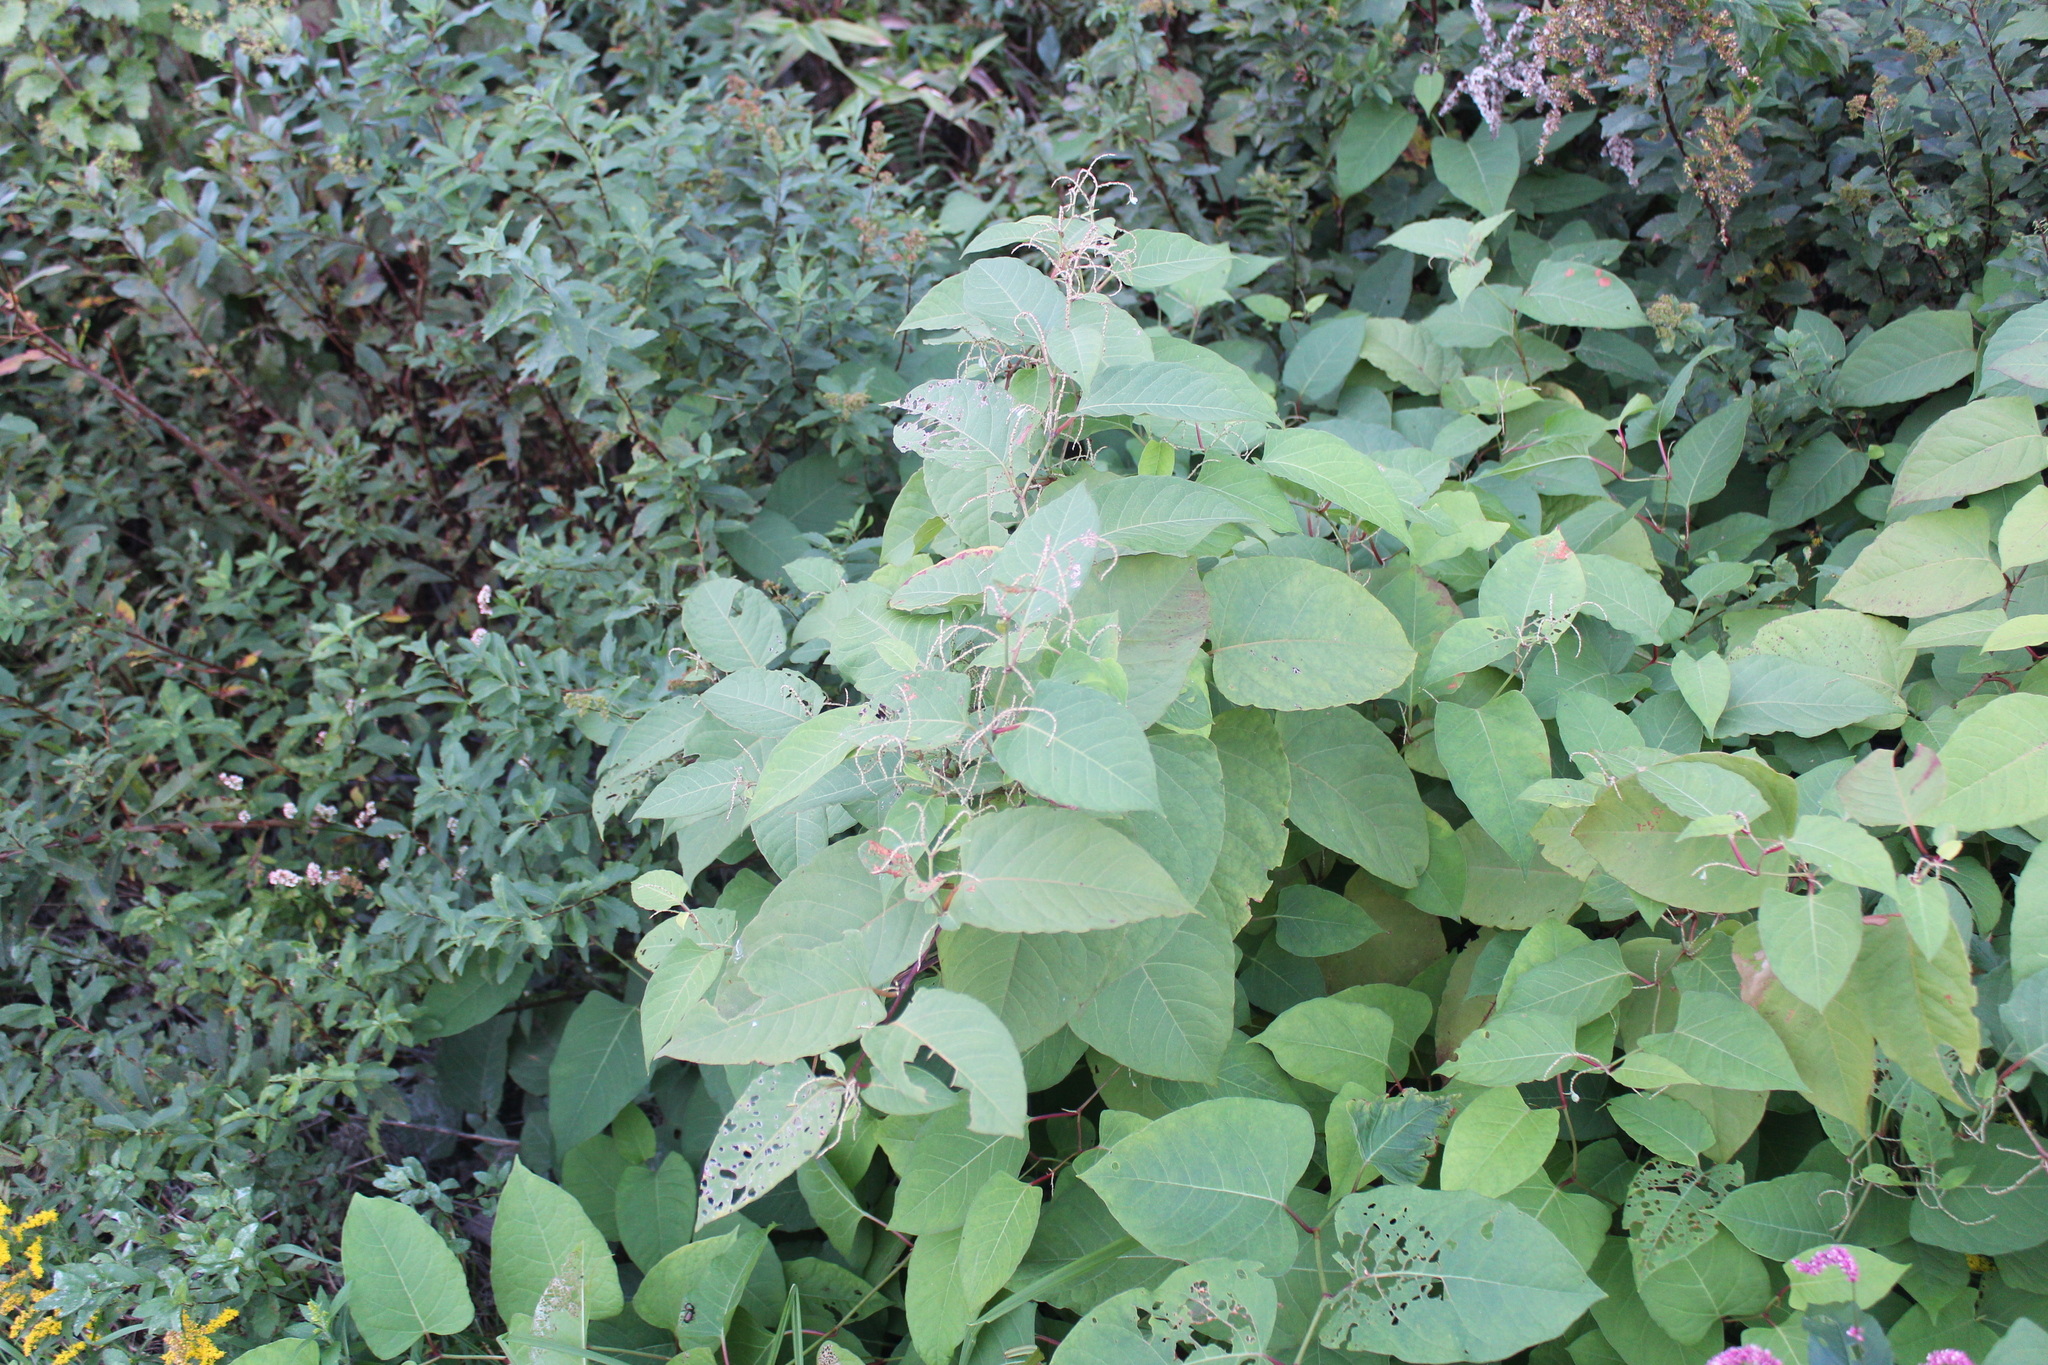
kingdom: Plantae
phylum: Tracheophyta
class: Magnoliopsida
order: Caryophyllales
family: Polygonaceae
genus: Reynoutria
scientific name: Reynoutria japonica
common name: Japanese knotweed
